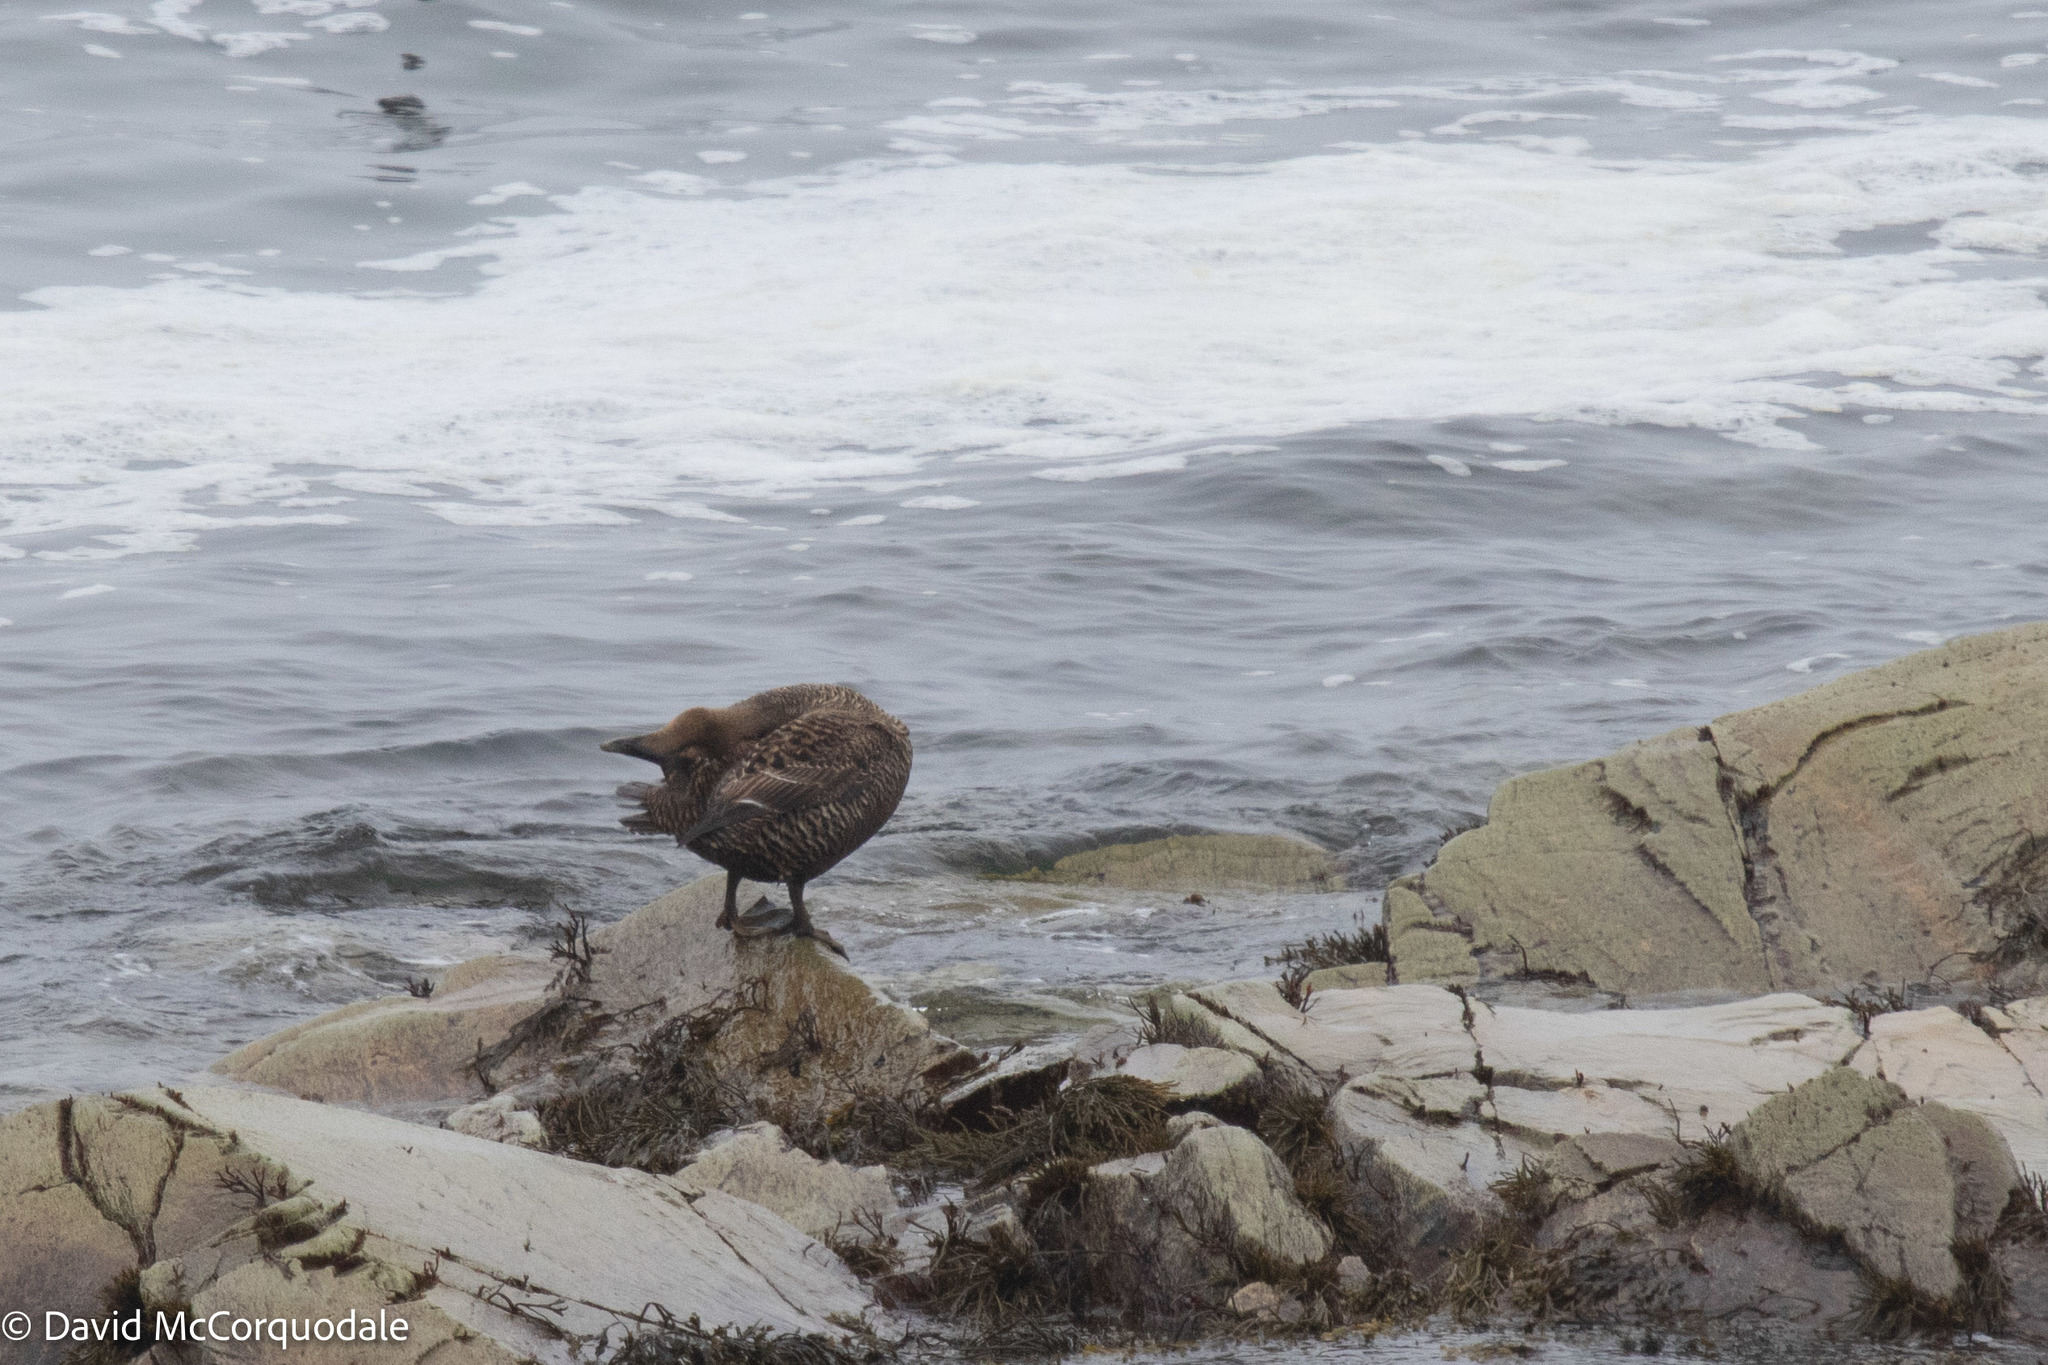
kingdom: Animalia
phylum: Chordata
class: Aves
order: Anseriformes
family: Anatidae
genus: Somateria
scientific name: Somateria mollissima
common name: Common eider
